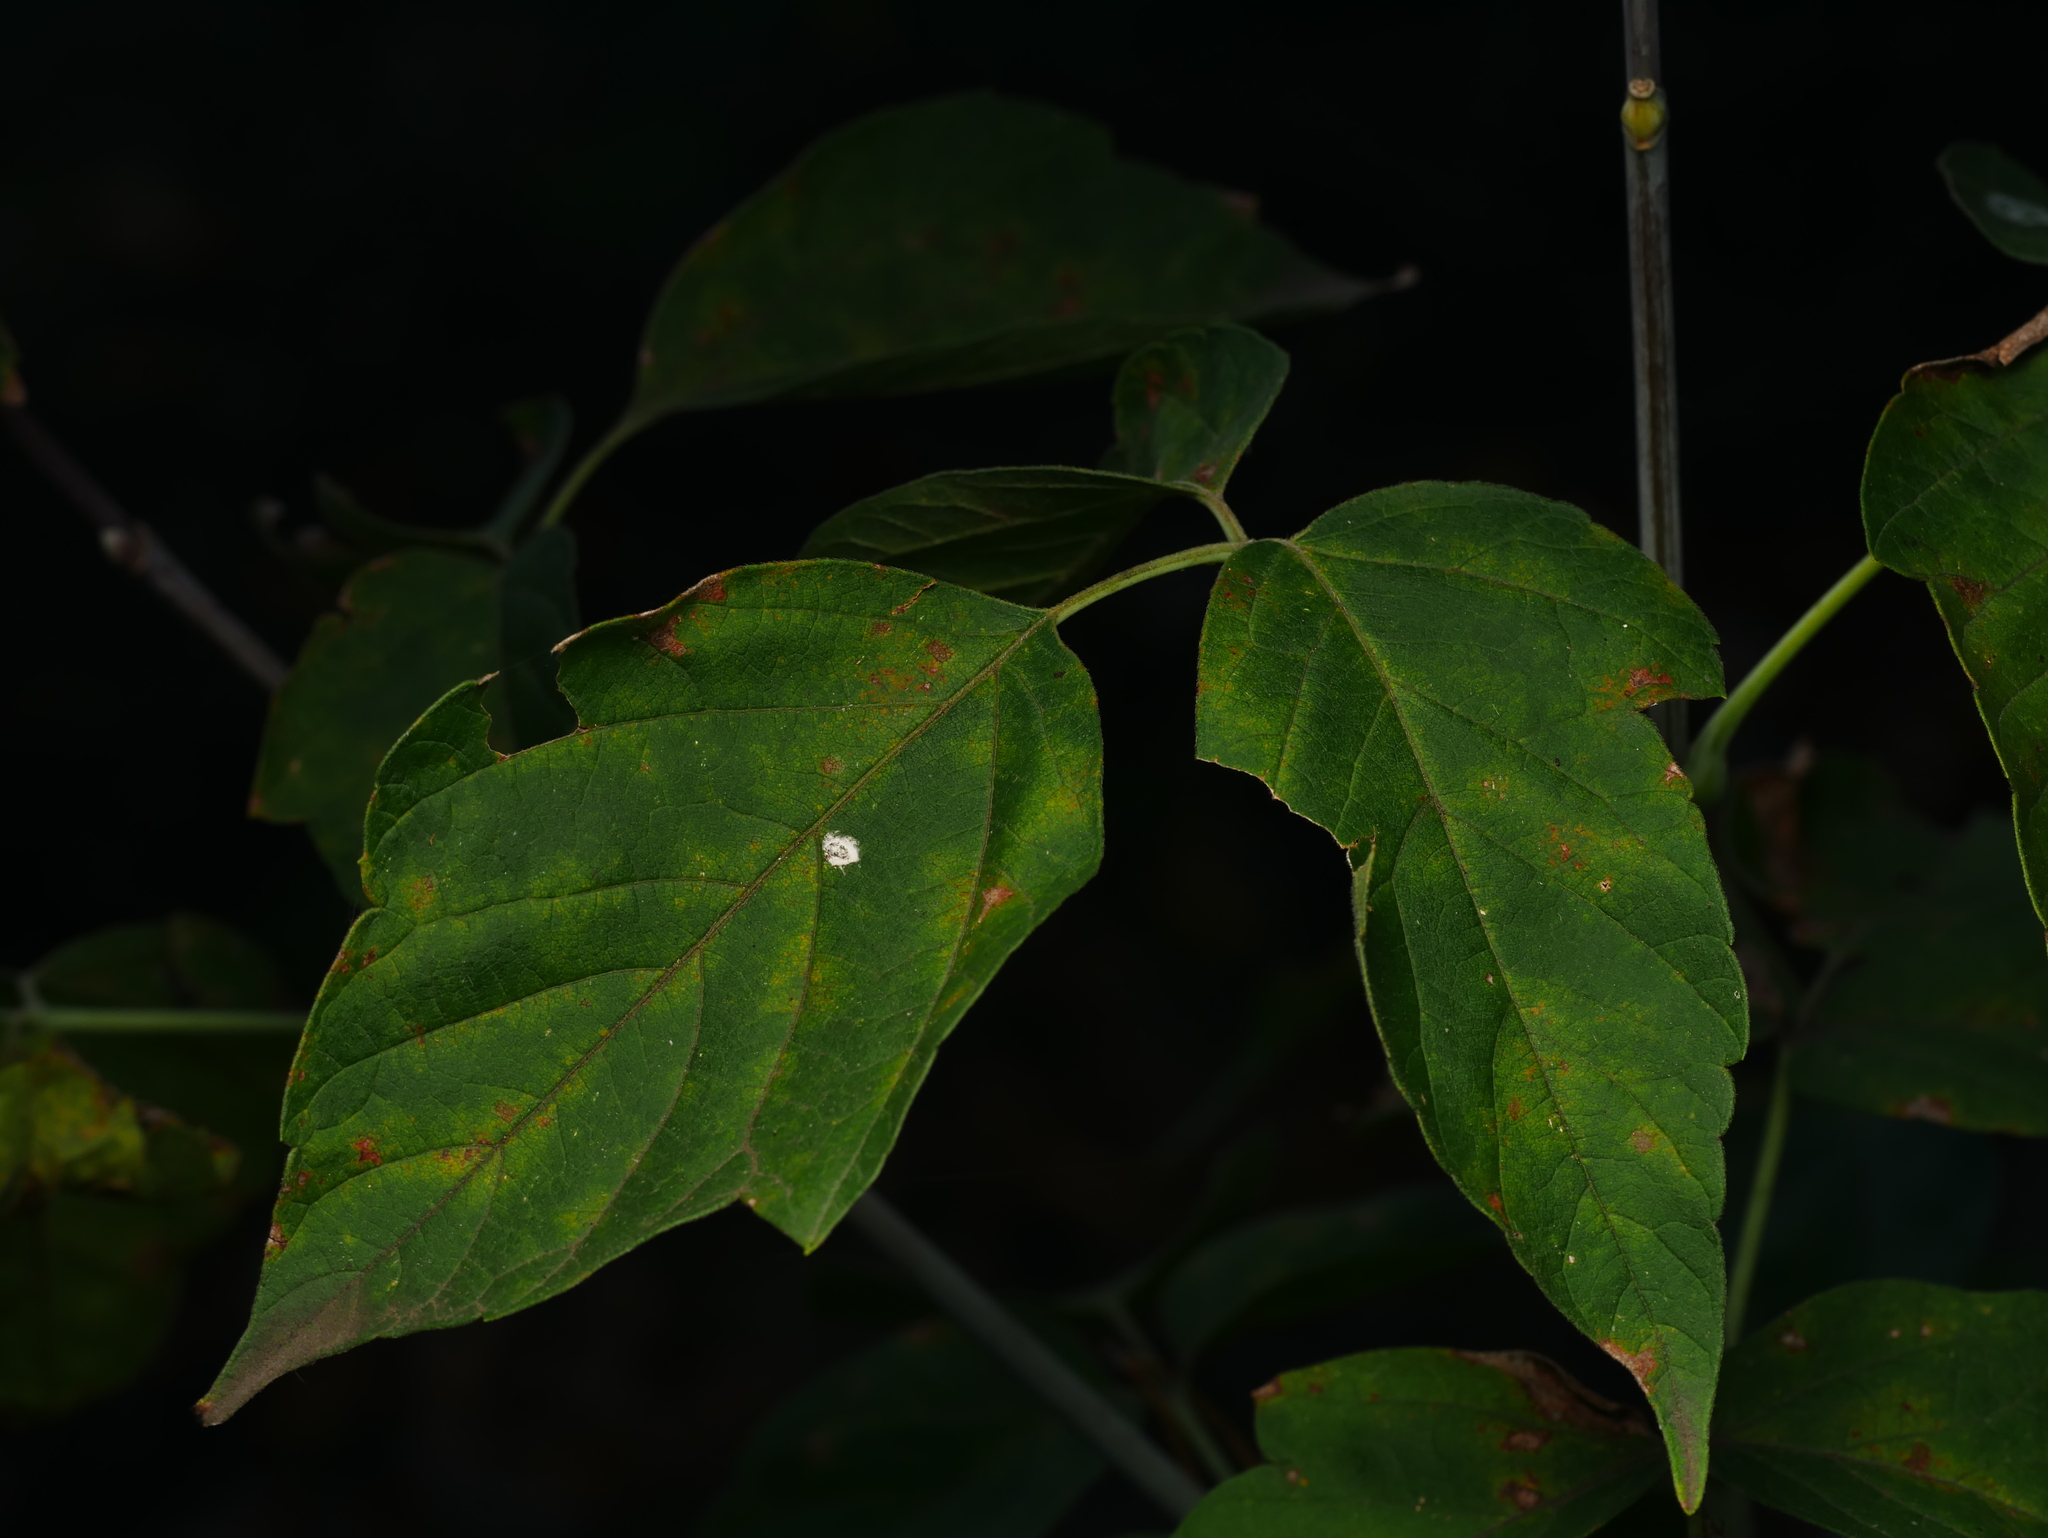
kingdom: Plantae
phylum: Tracheophyta
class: Magnoliopsida
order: Sapindales
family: Sapindaceae
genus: Acer
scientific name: Acer negundo
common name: Ashleaf maple
